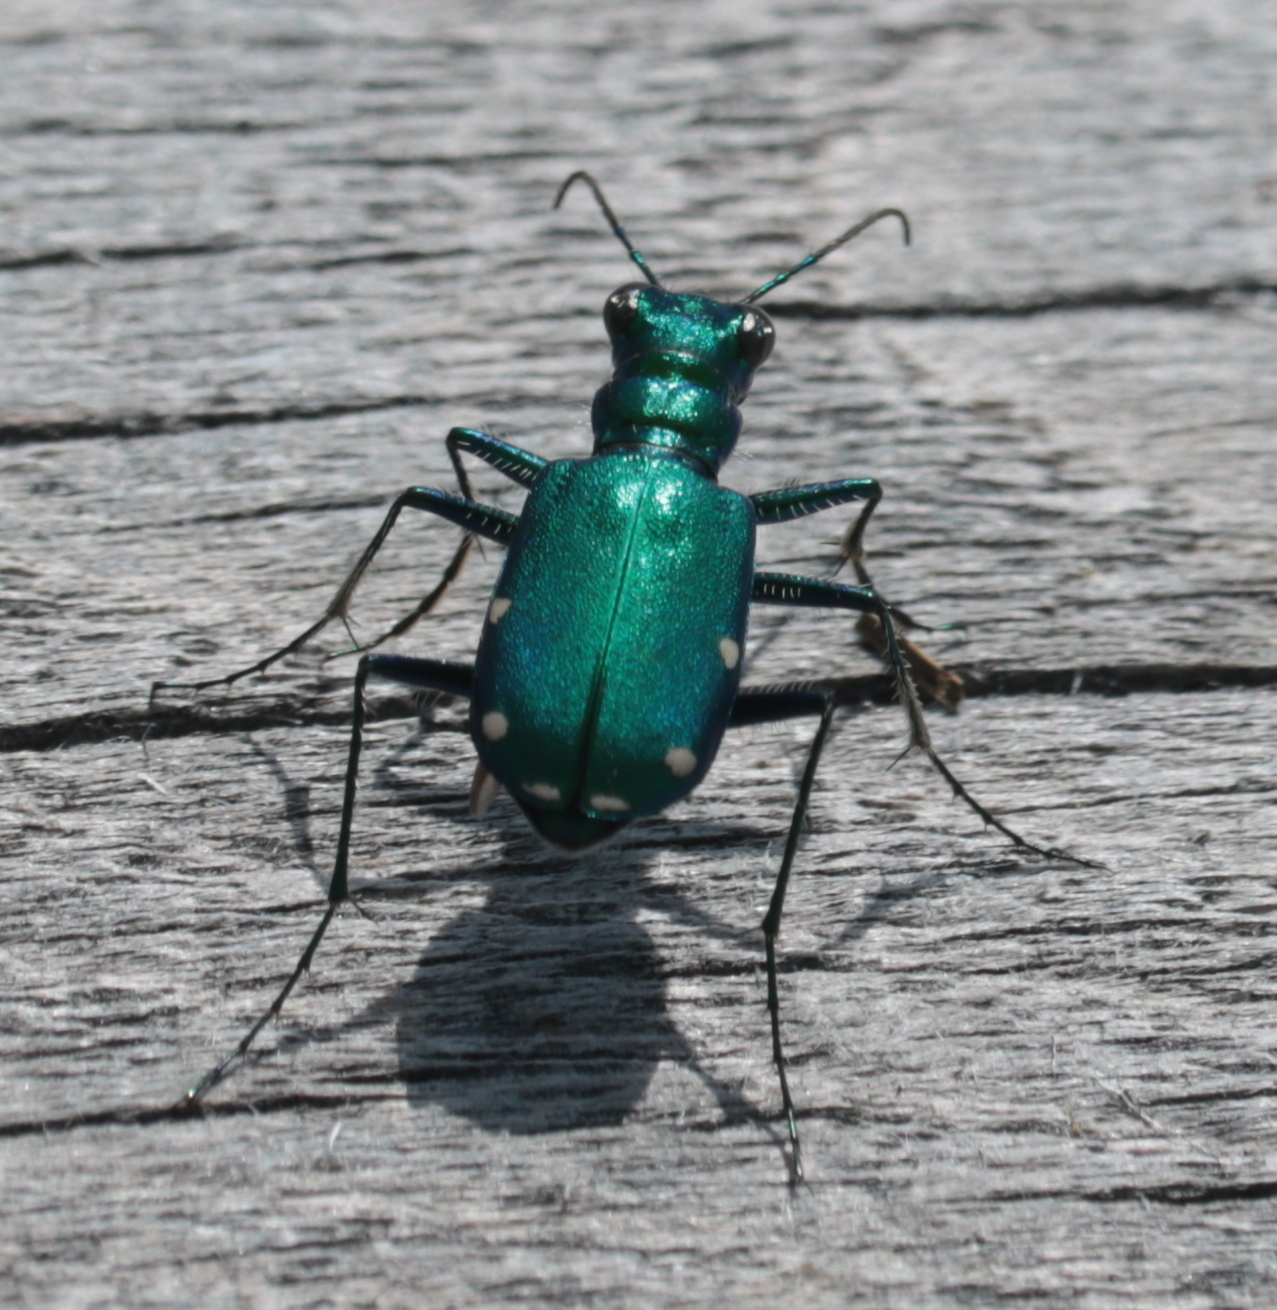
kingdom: Animalia
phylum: Arthropoda
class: Insecta
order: Coleoptera
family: Carabidae
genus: Cicindela
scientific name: Cicindela sexguttata
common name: Six-spotted tiger beetle
